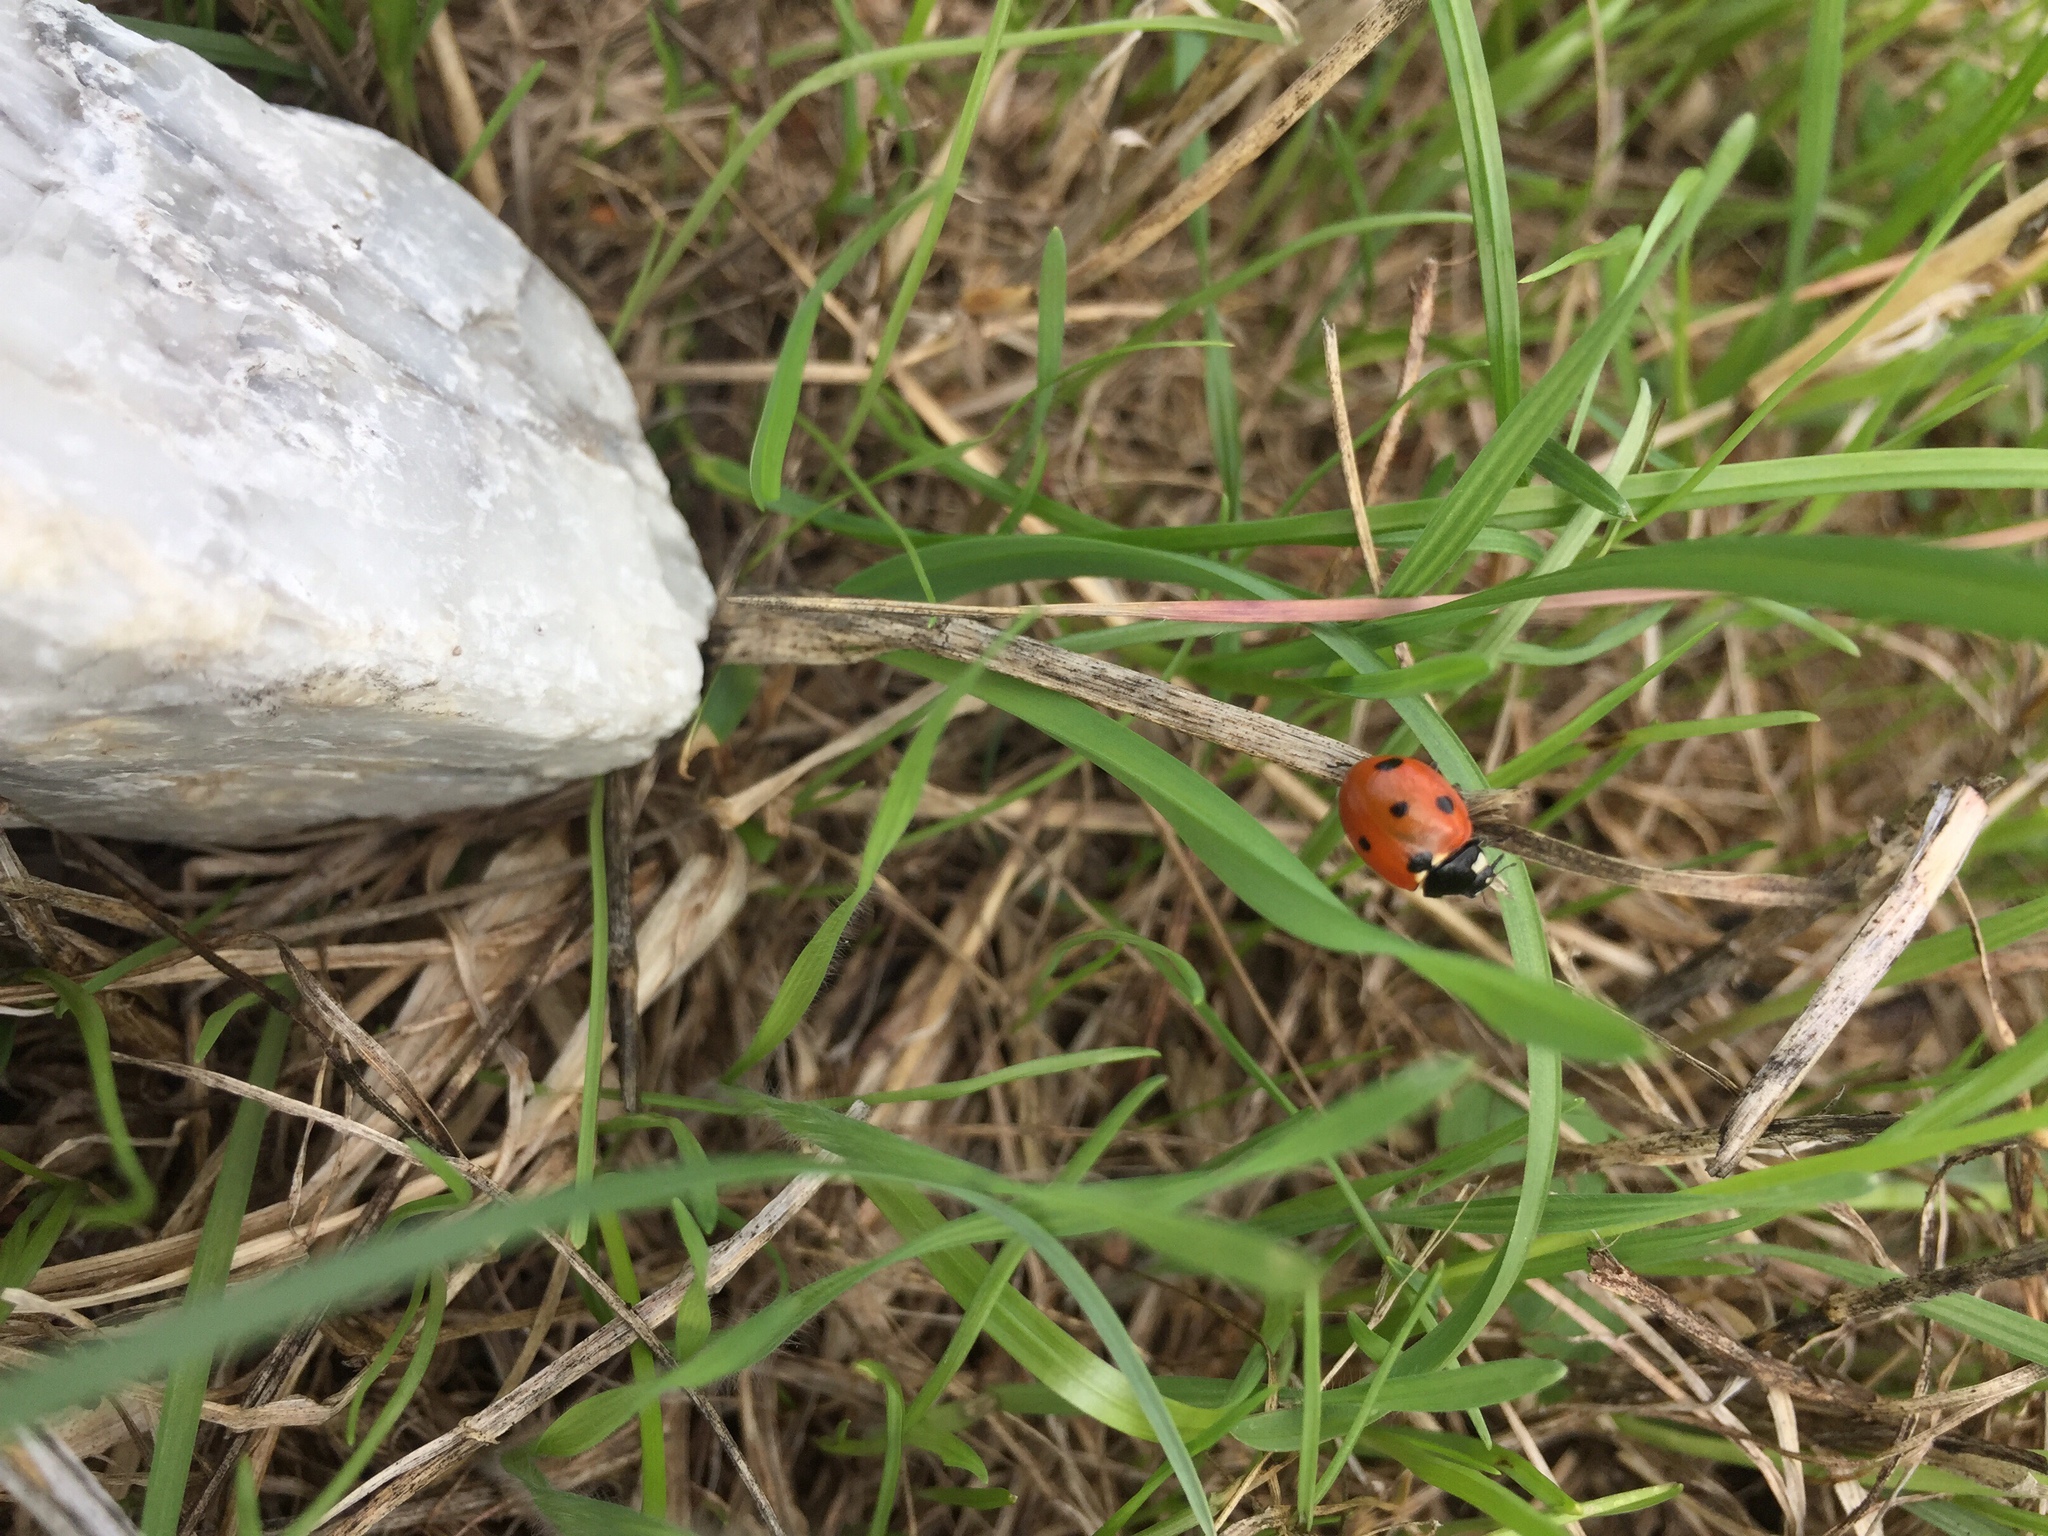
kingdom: Animalia
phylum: Arthropoda
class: Insecta
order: Coleoptera
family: Coccinellidae
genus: Coccinella
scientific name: Coccinella septempunctata
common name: Sevenspotted lady beetle
